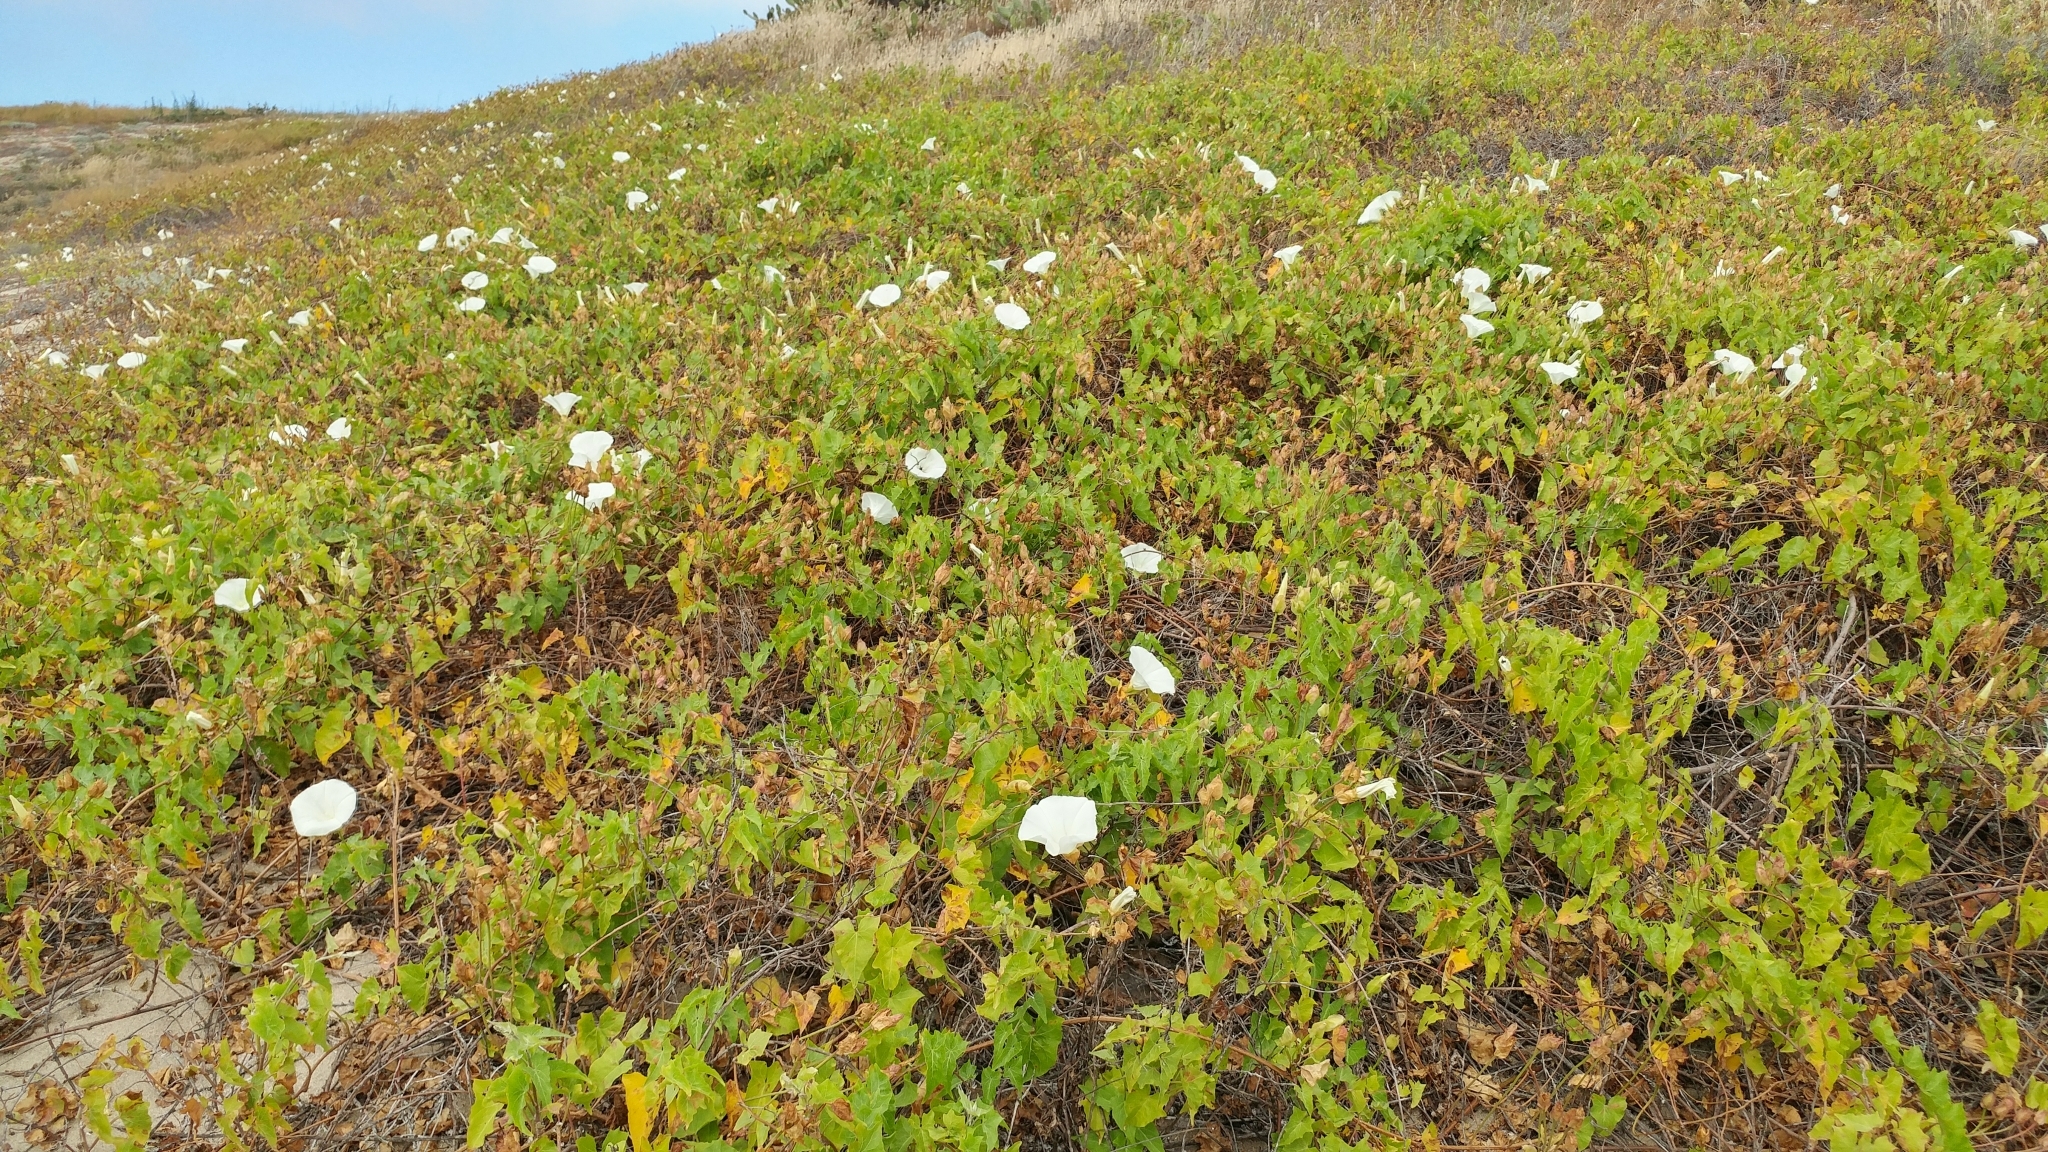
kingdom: Plantae
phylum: Tracheophyta
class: Magnoliopsida
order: Solanales
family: Convolvulaceae
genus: Calystegia
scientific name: Calystegia macrostegia
